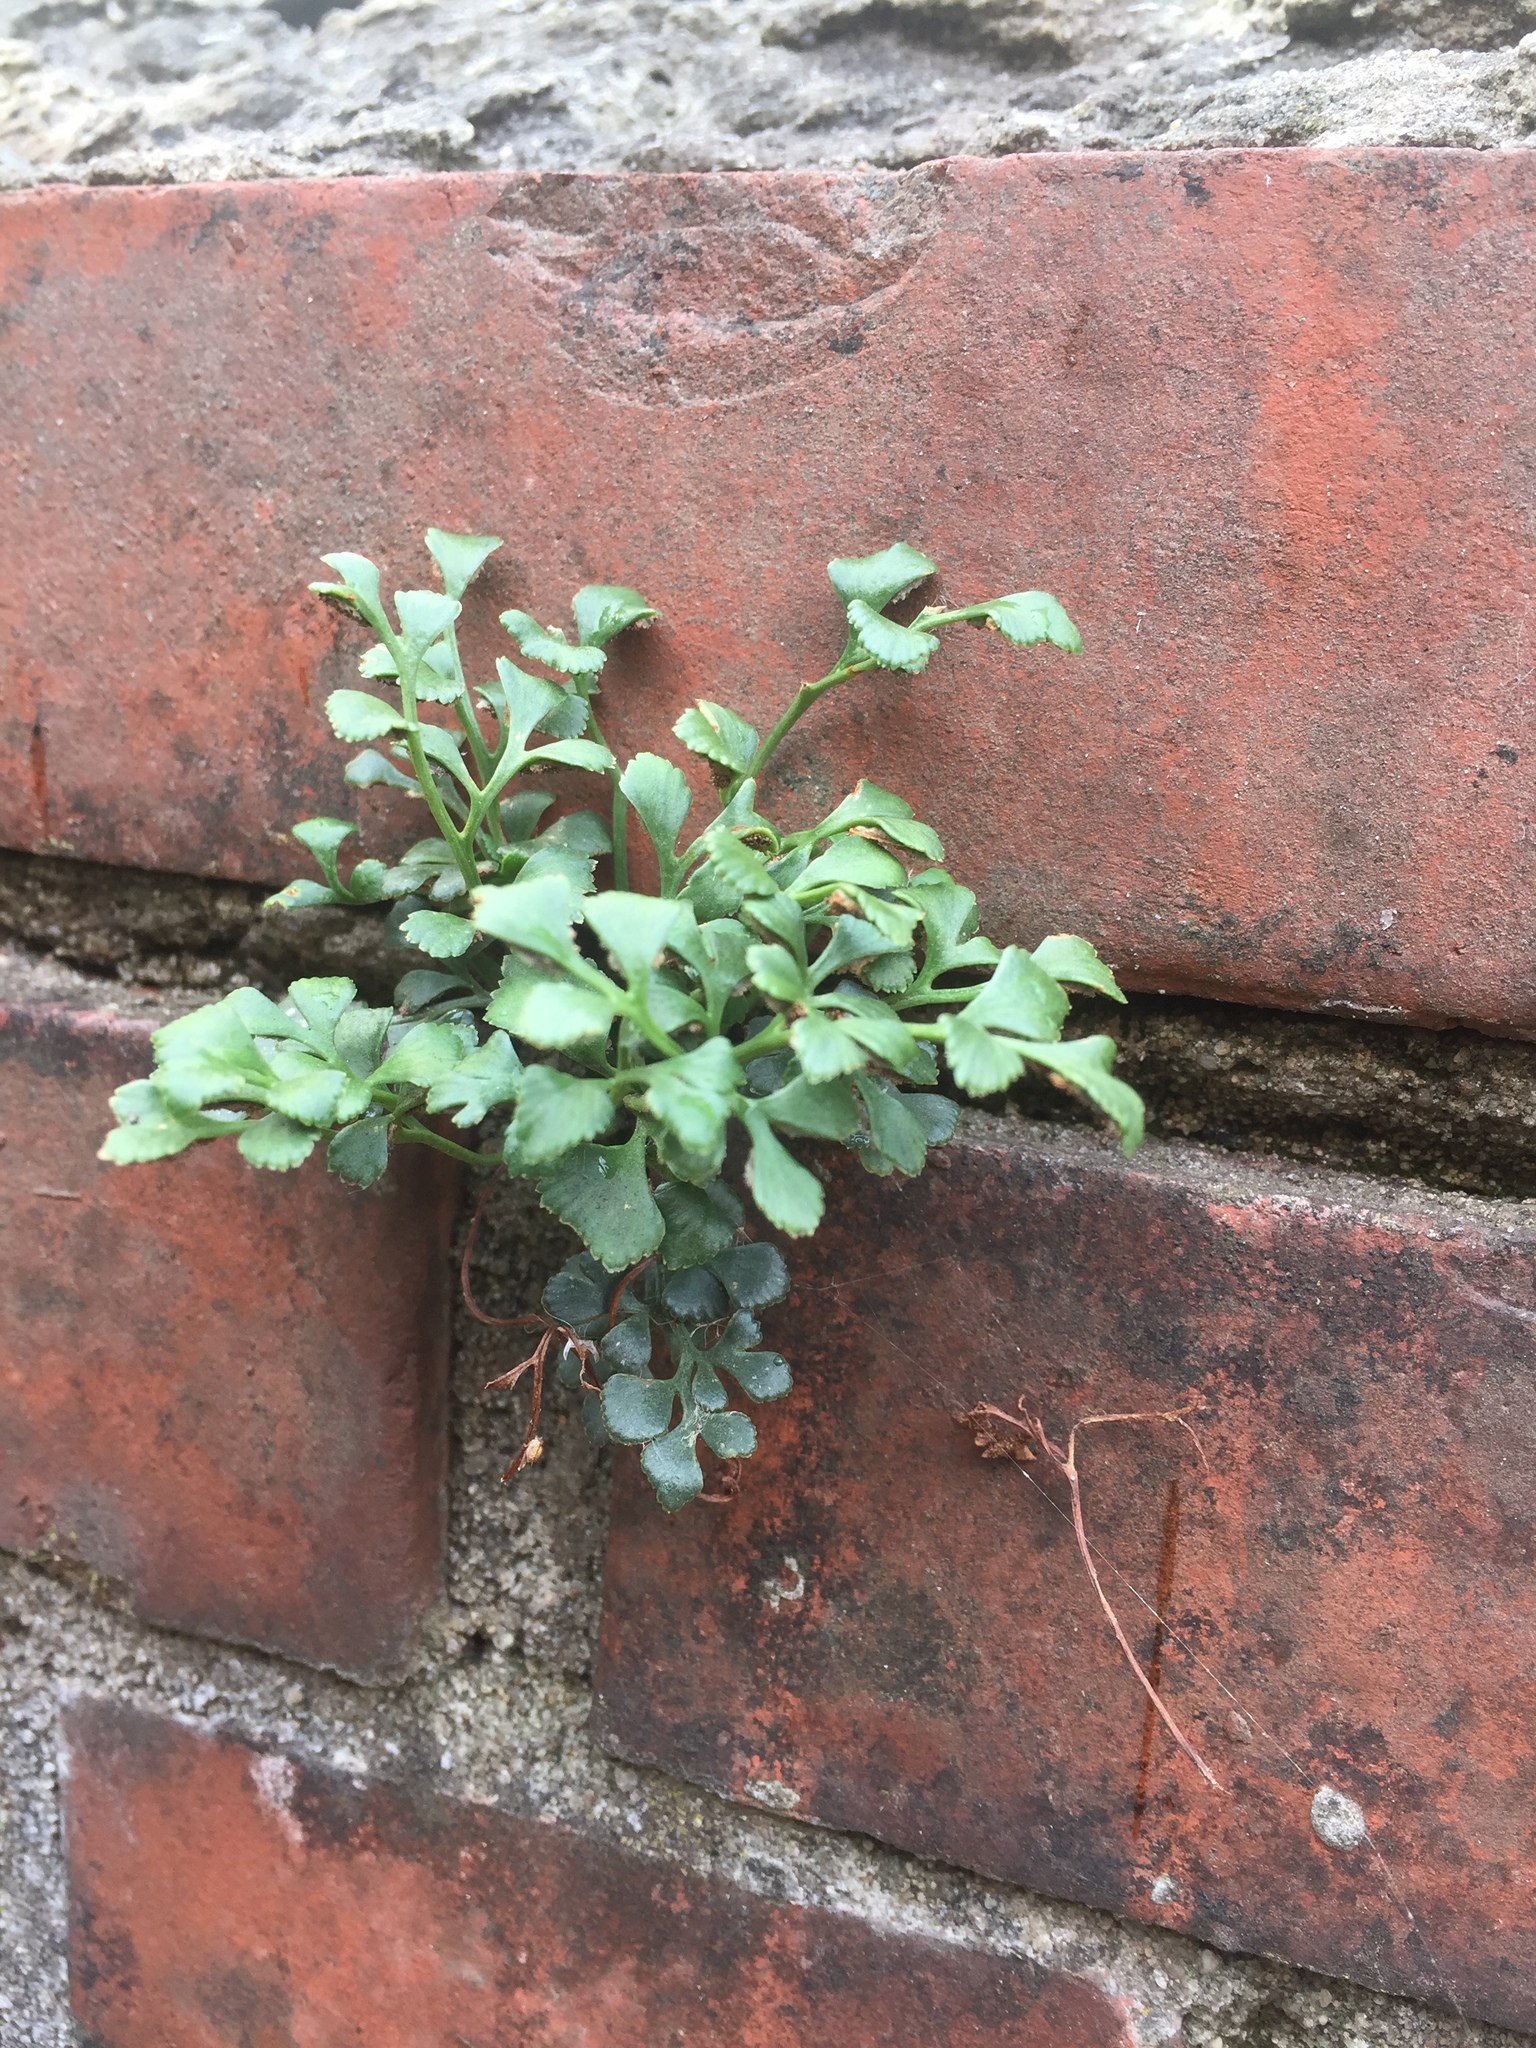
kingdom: Plantae
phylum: Tracheophyta
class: Polypodiopsida
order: Polypodiales
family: Aspleniaceae
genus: Asplenium
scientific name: Asplenium ruta-muraria
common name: Wall-rue
